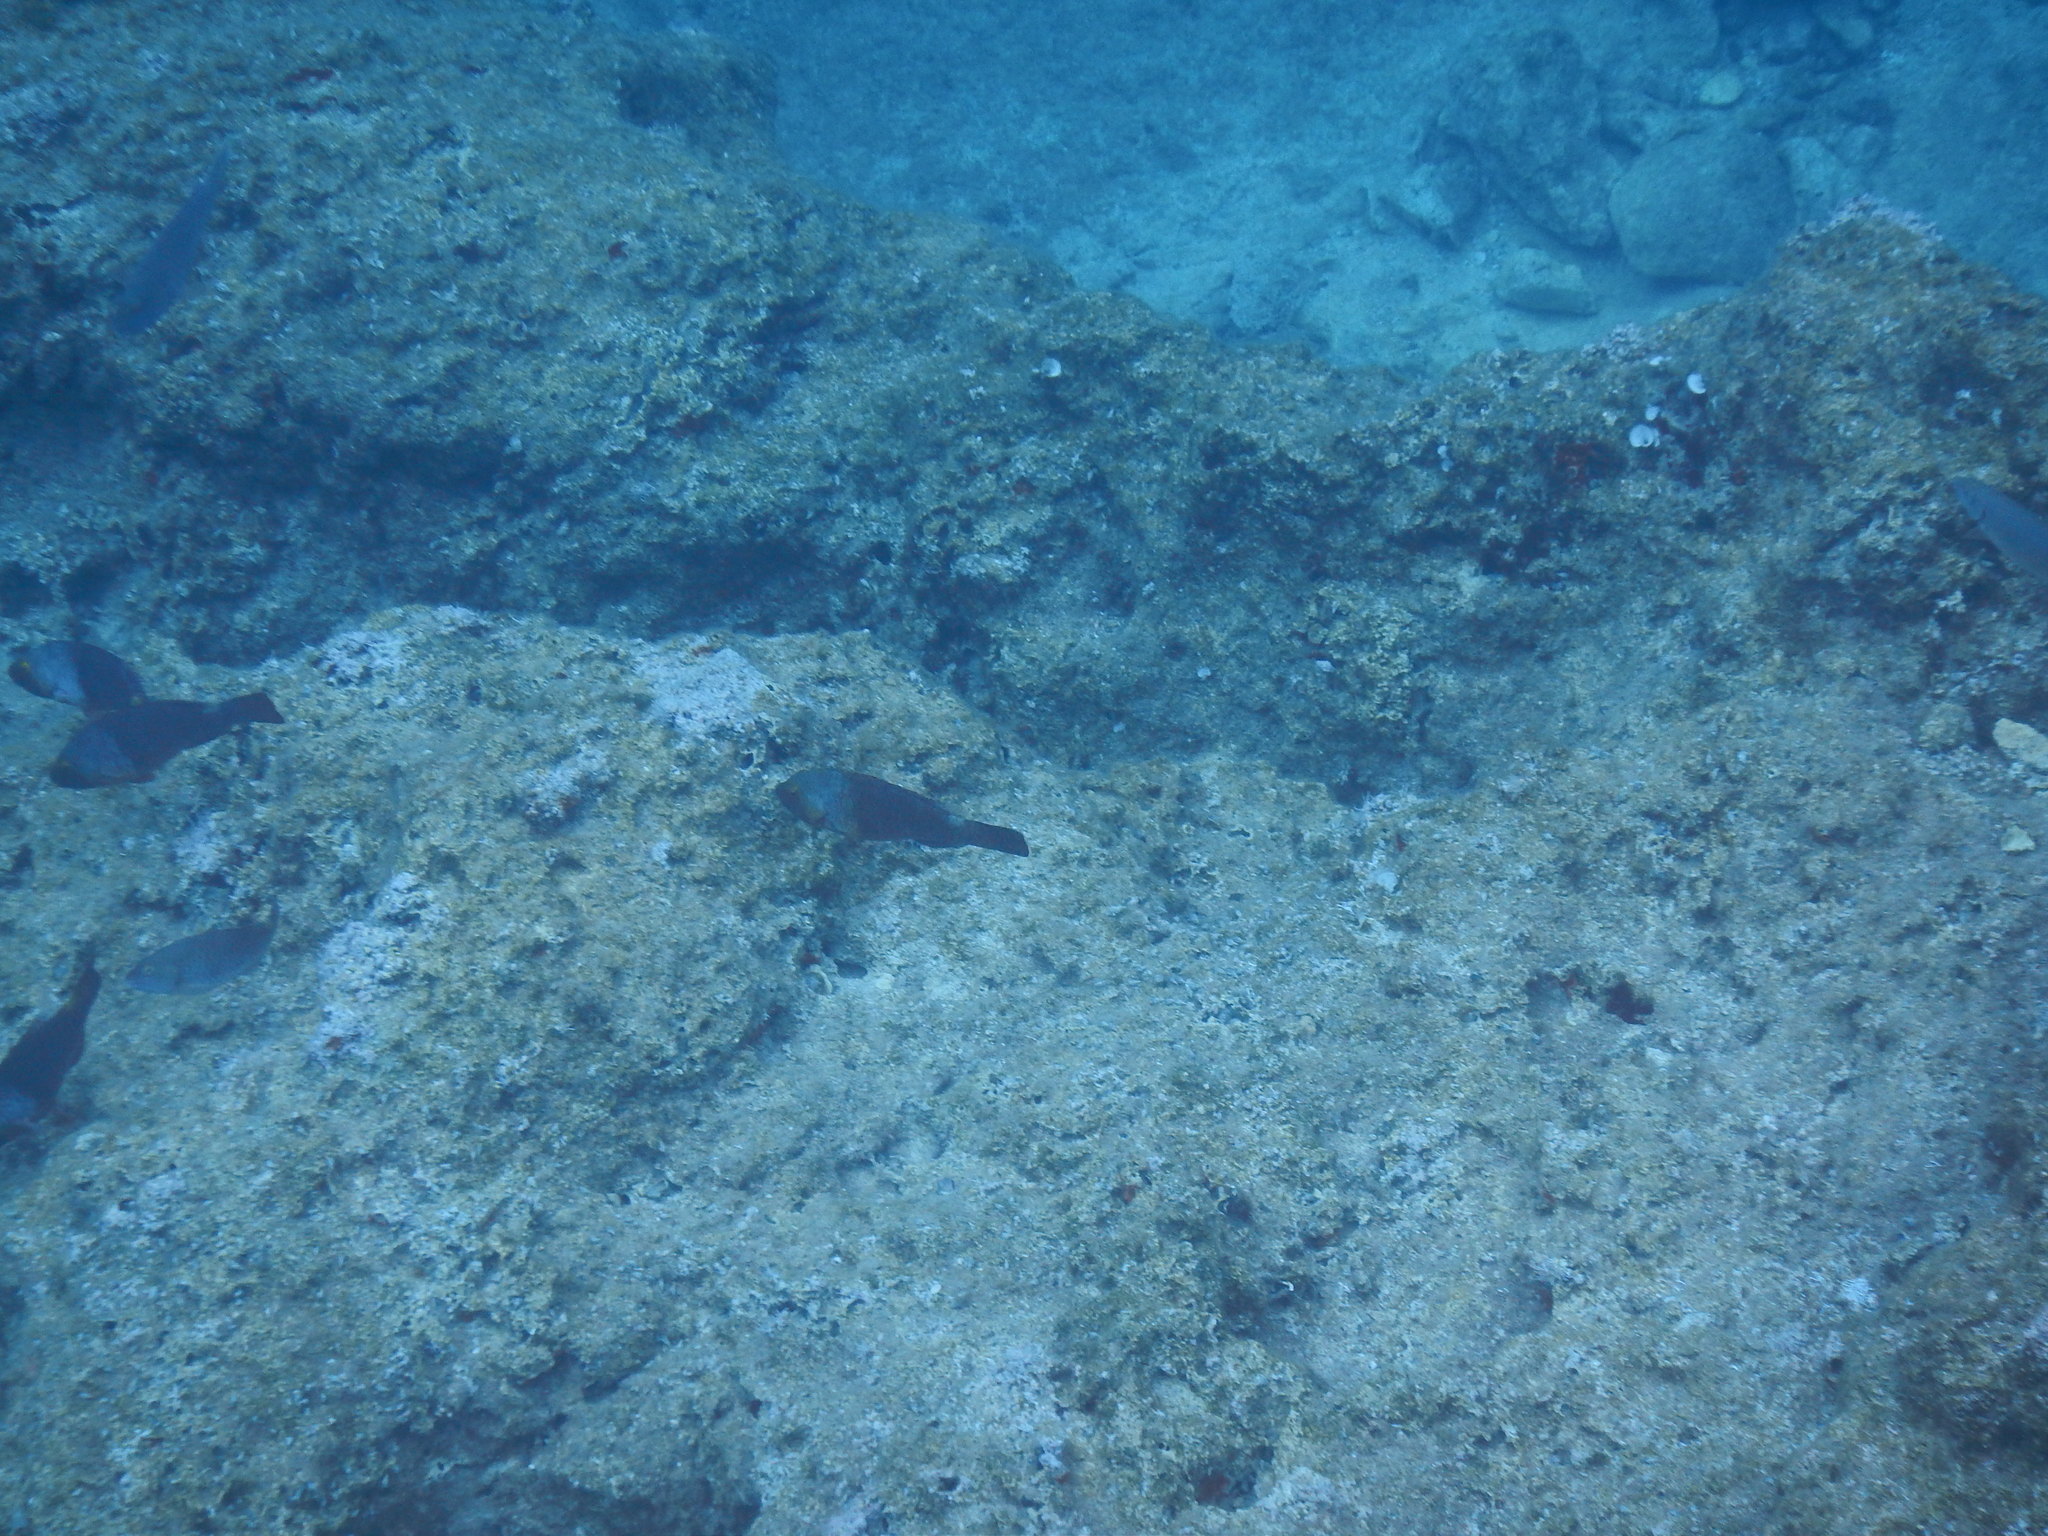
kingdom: Animalia
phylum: Chordata
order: Perciformes
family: Scaridae
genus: Sparisoma
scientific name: Sparisoma cretense
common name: Parrotfish
